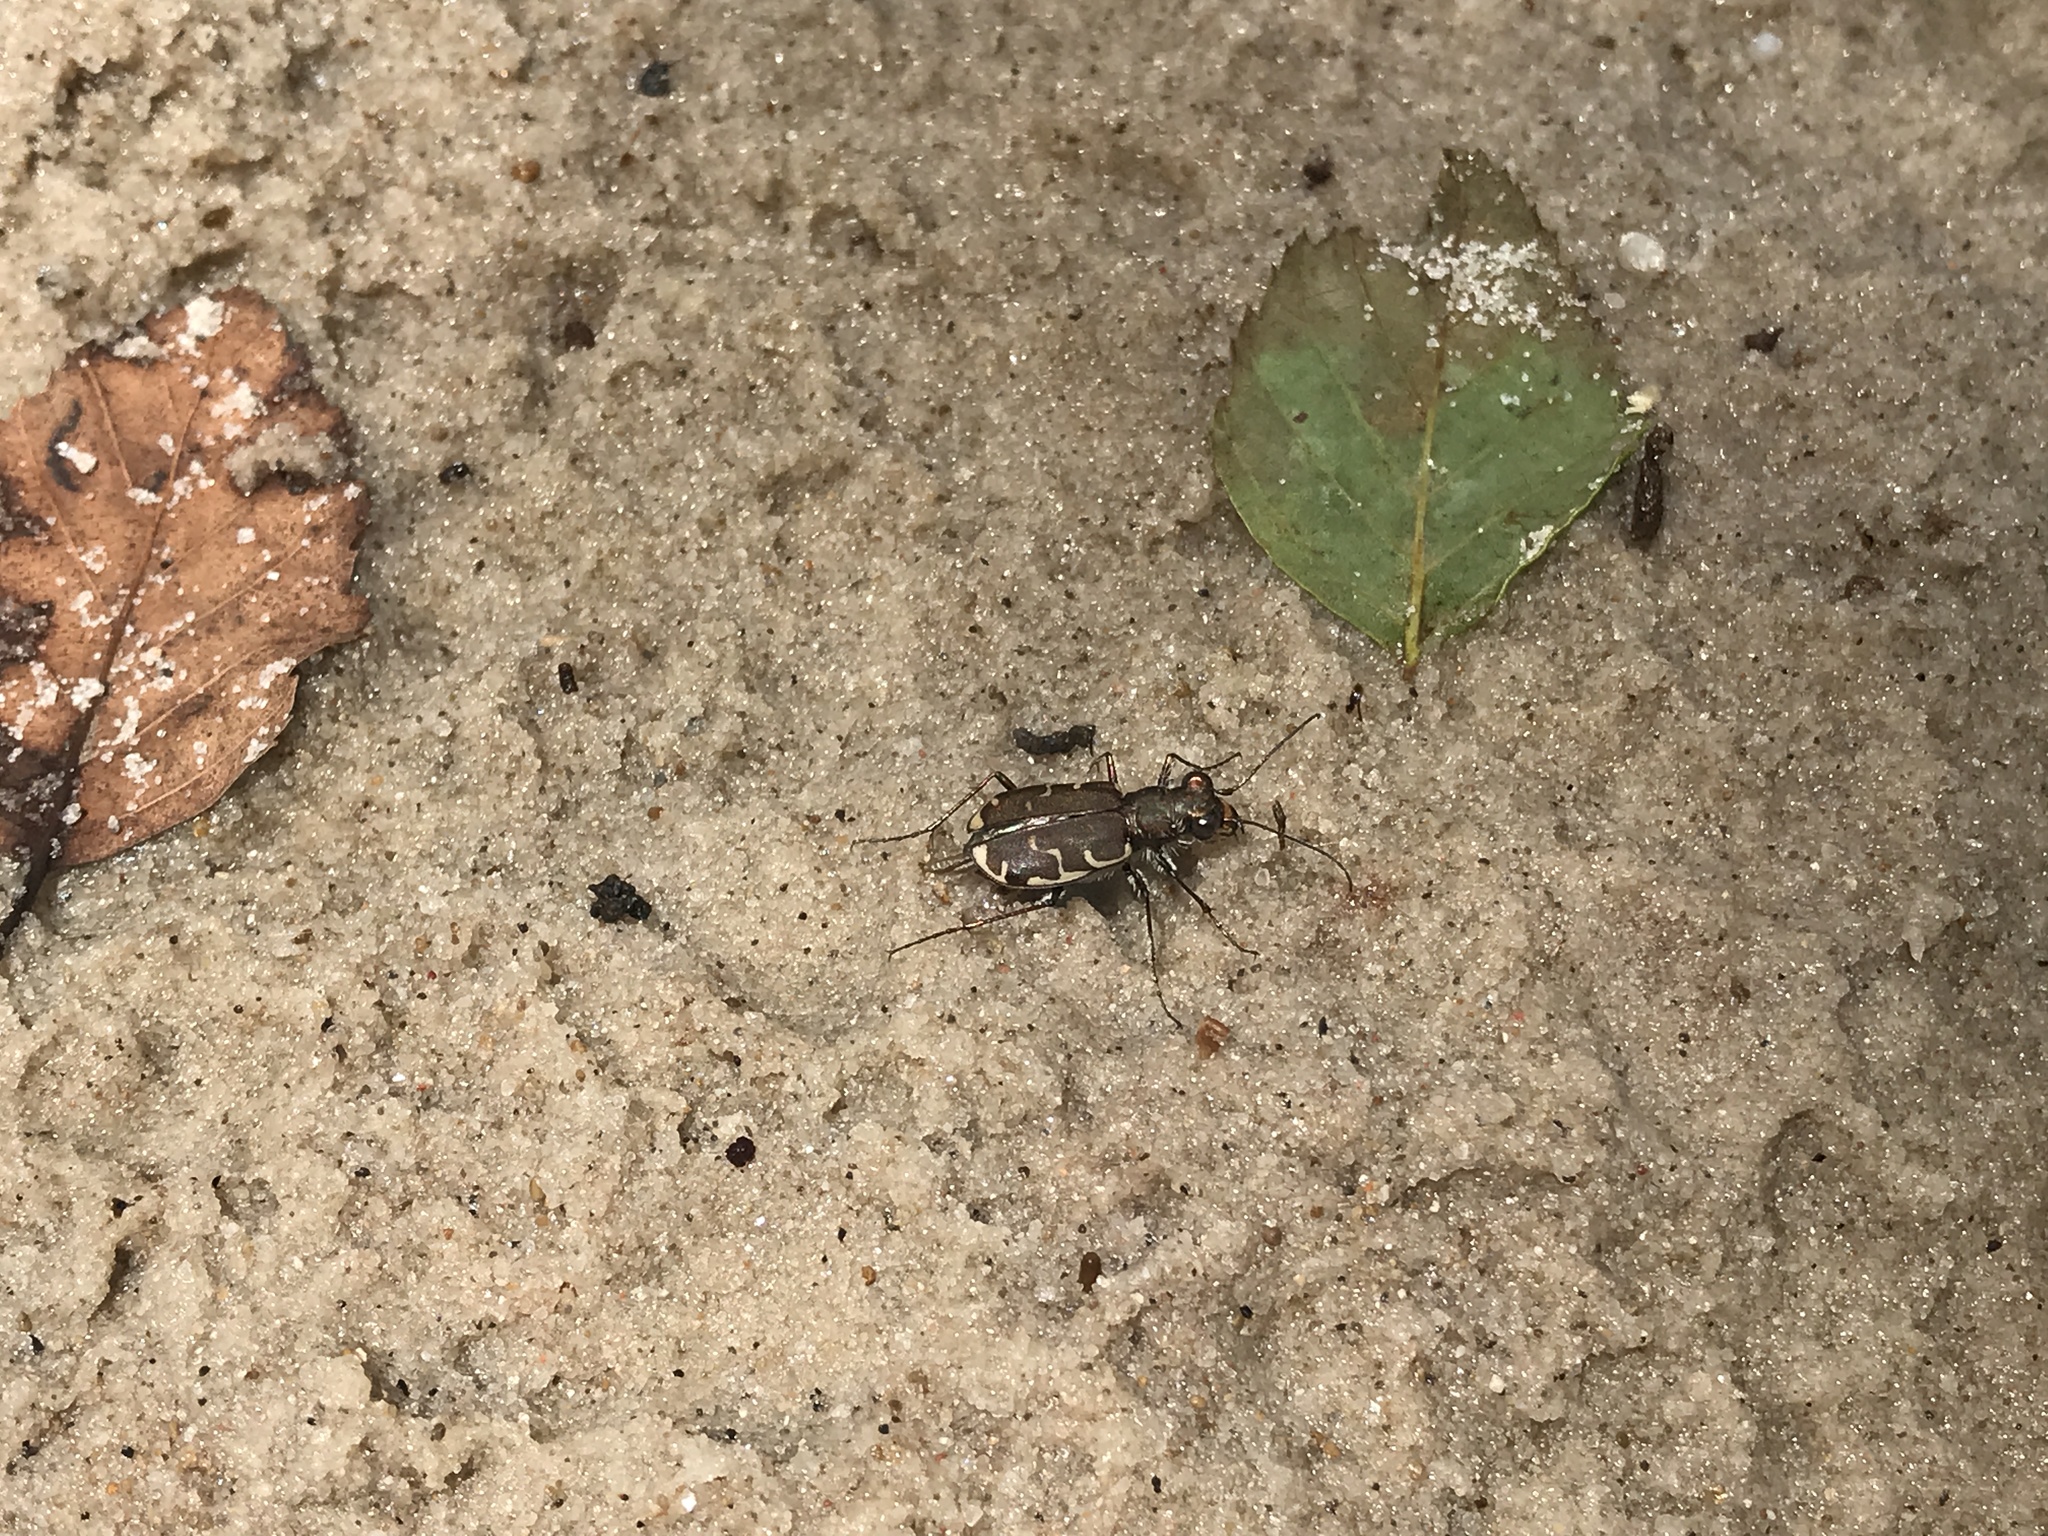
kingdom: Animalia
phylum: Arthropoda
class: Insecta
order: Coleoptera
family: Carabidae
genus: Cicindela
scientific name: Cicindela repanda
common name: Bronzed tiger beetle
